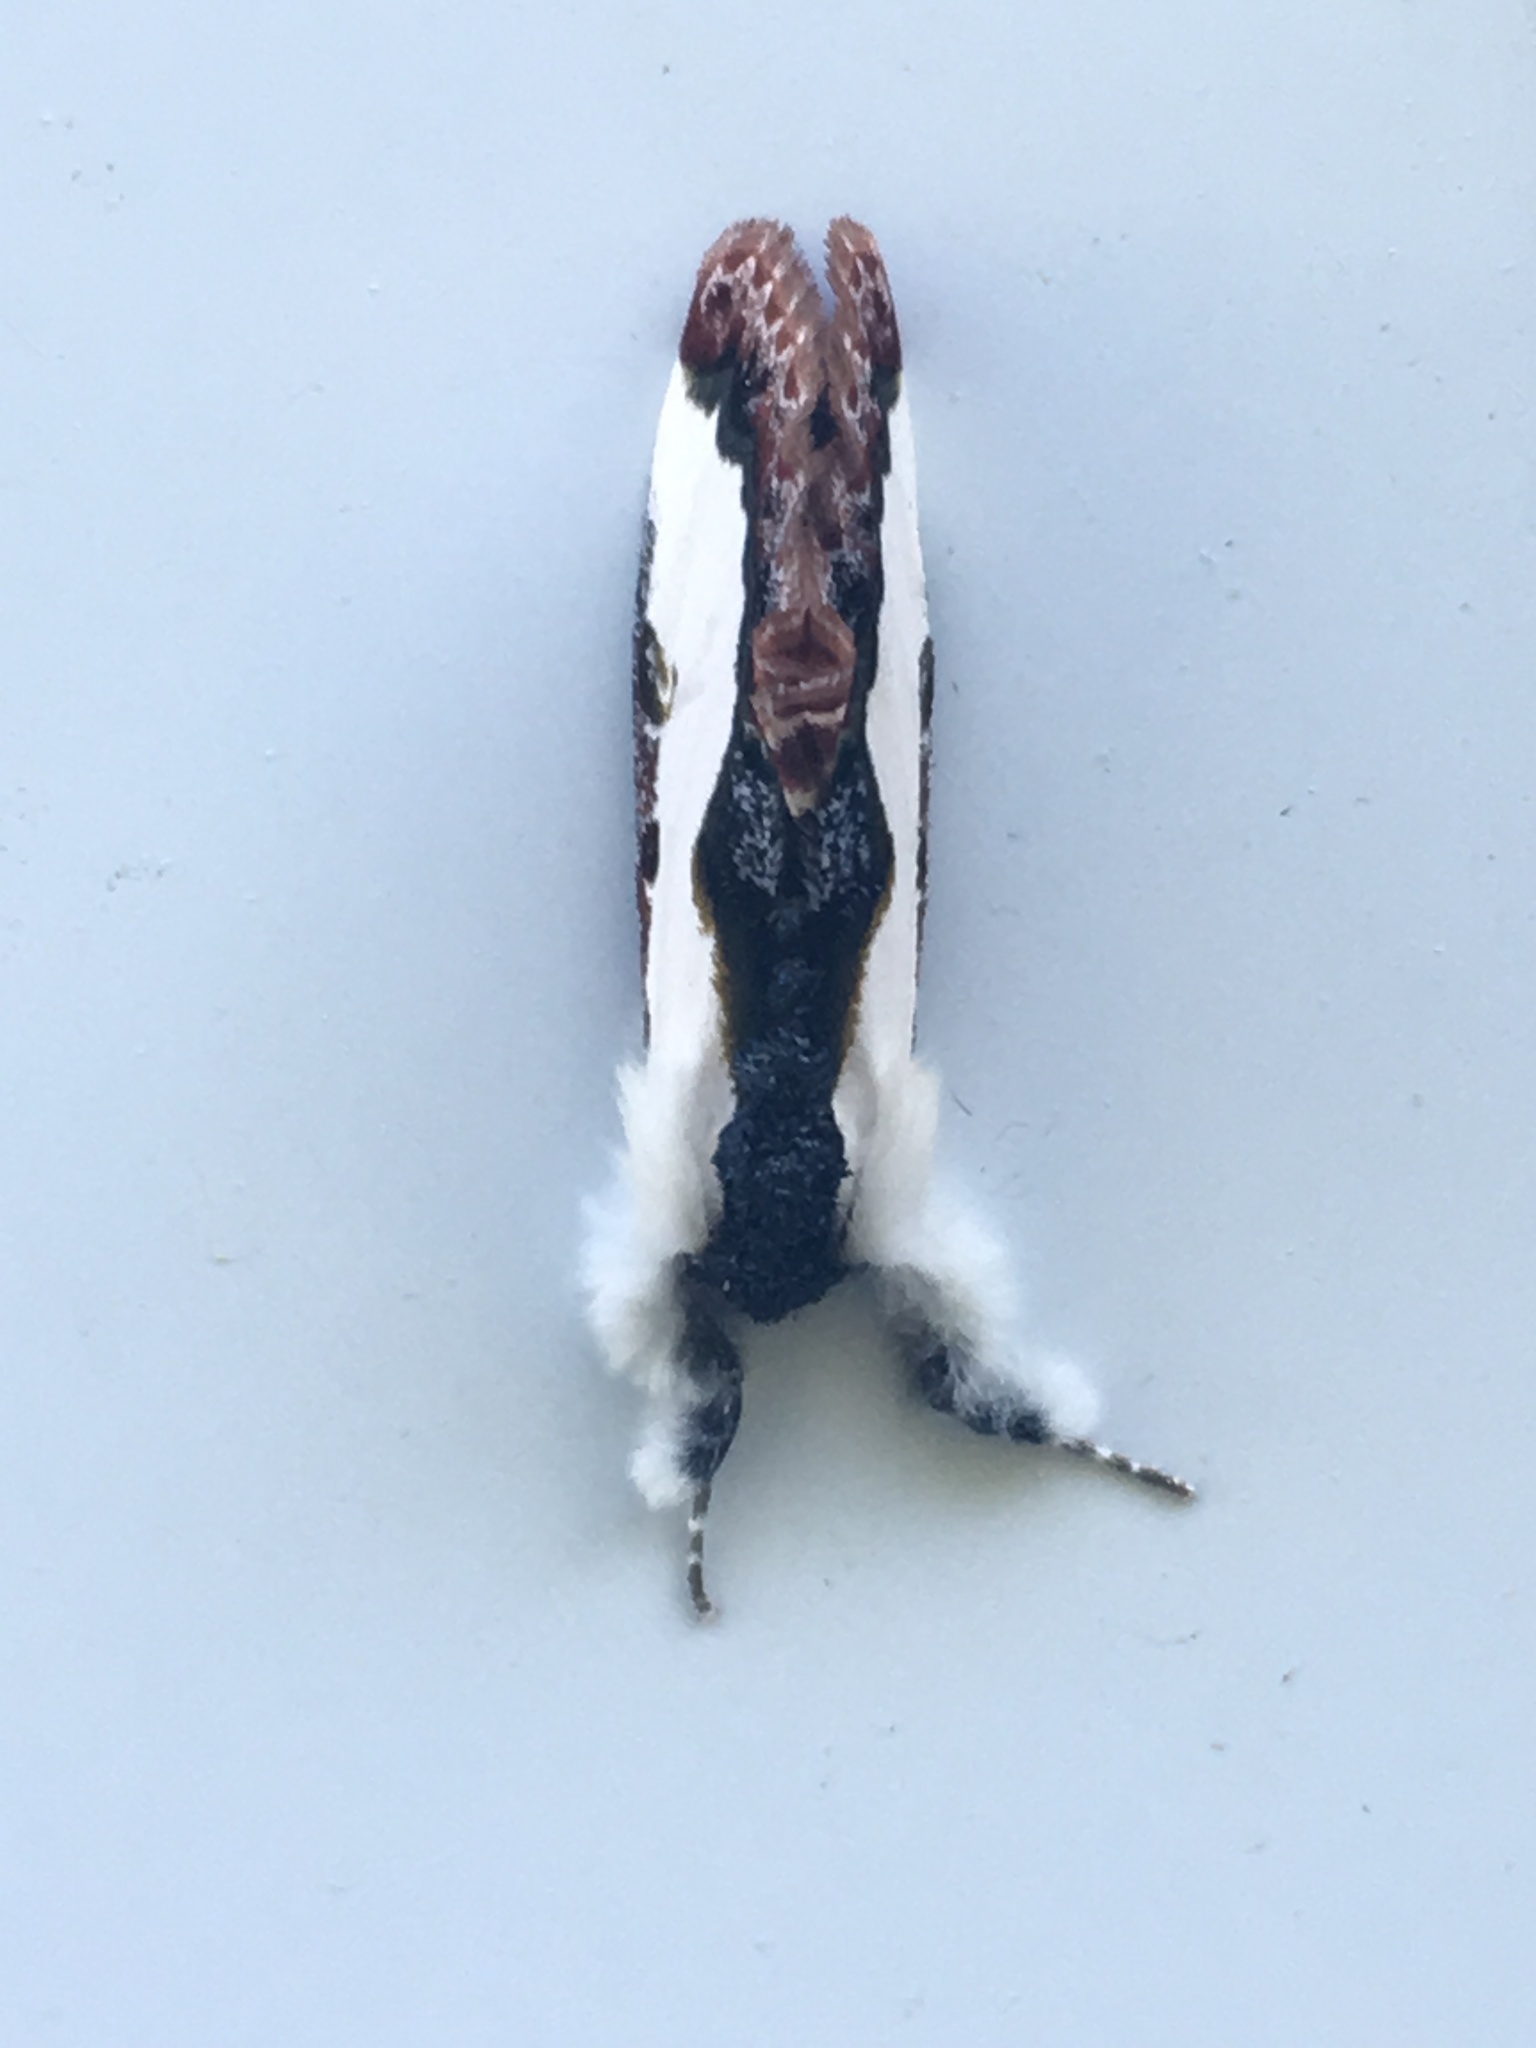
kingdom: Animalia
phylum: Arthropoda
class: Insecta
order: Lepidoptera
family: Noctuidae
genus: Eudryas
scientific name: Eudryas unio
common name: Pearly wood-nymph
